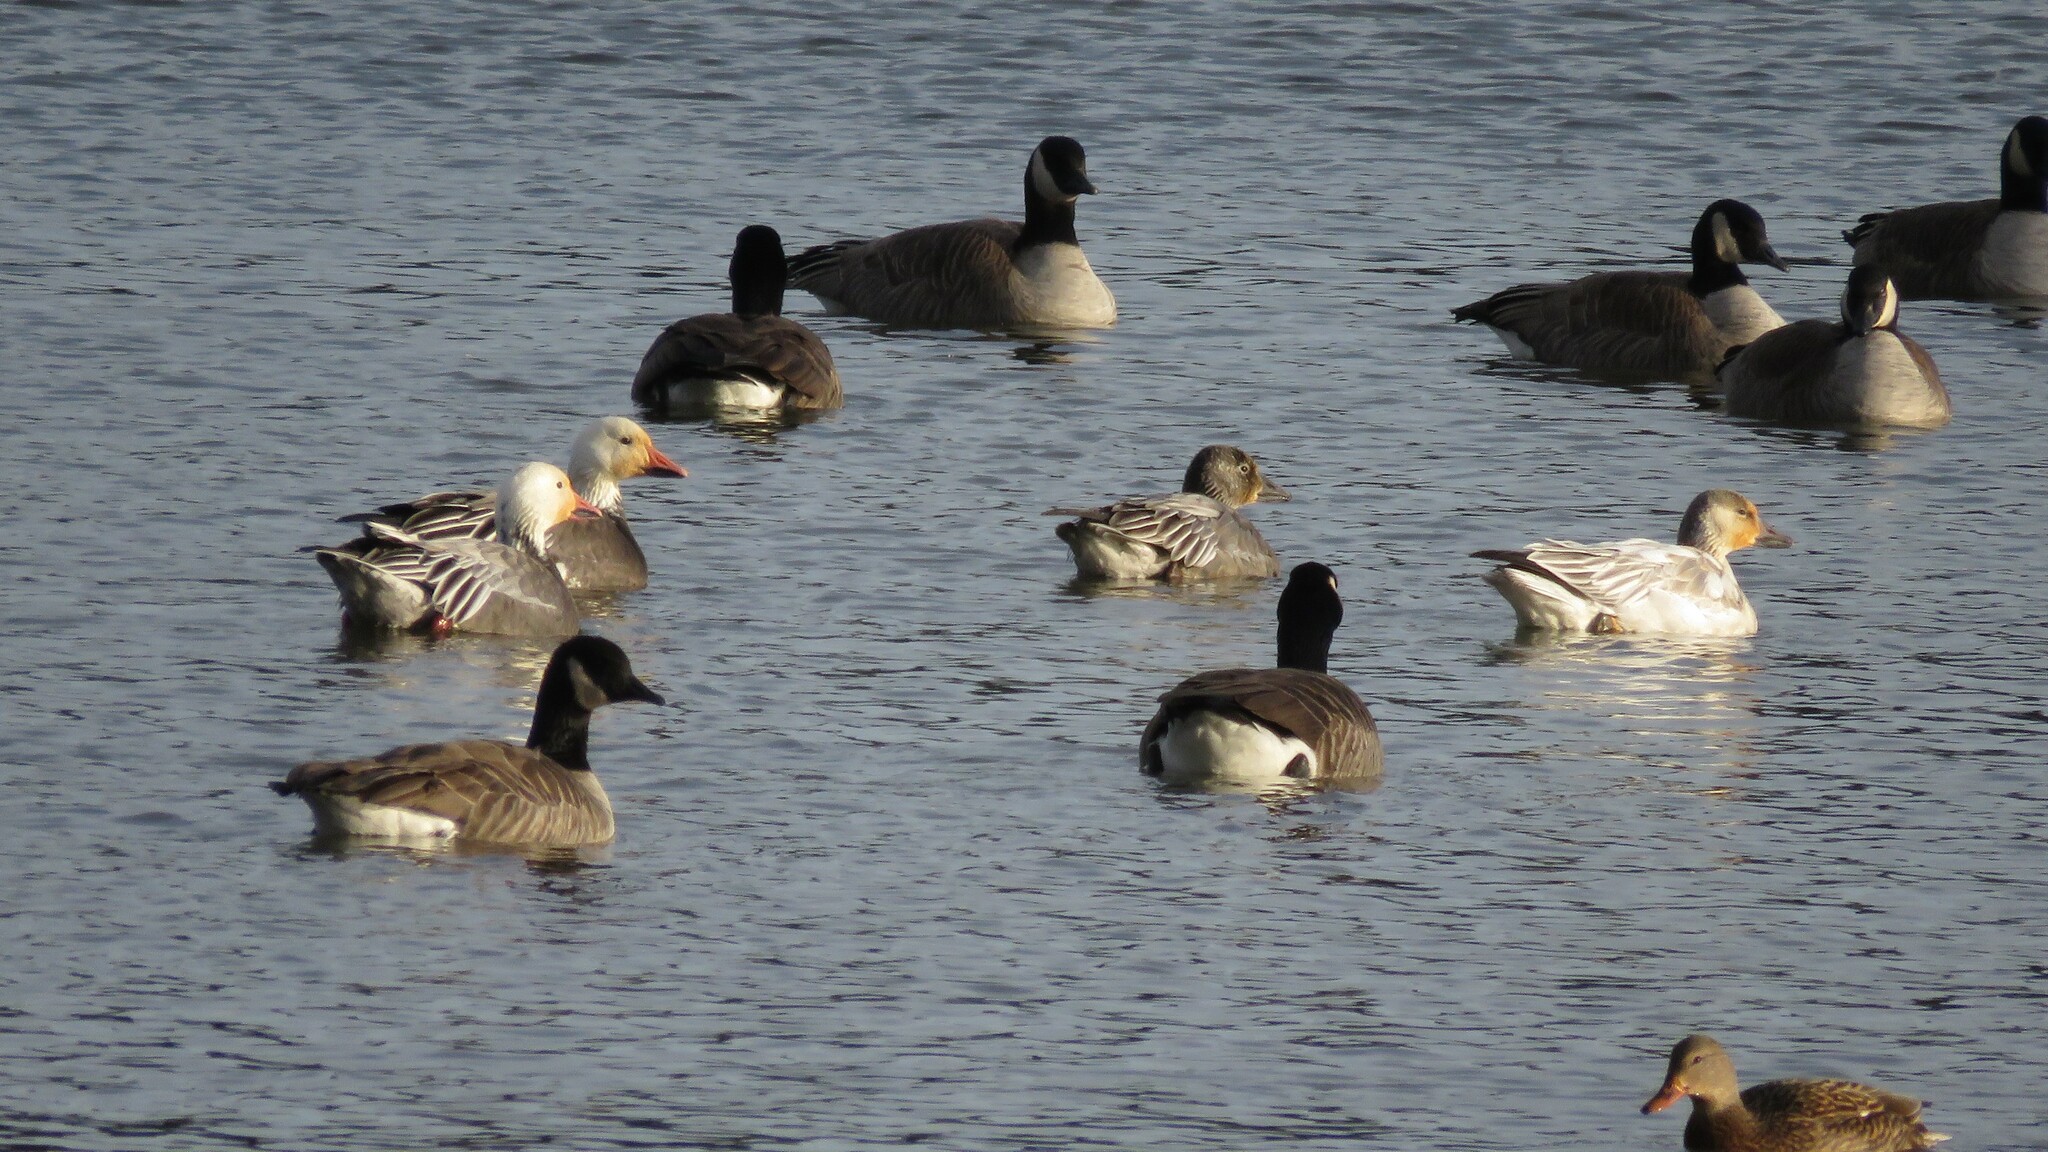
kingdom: Animalia
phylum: Chordata
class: Aves
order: Anseriformes
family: Anatidae
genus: Anser
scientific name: Anser caerulescens
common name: Snow goose
